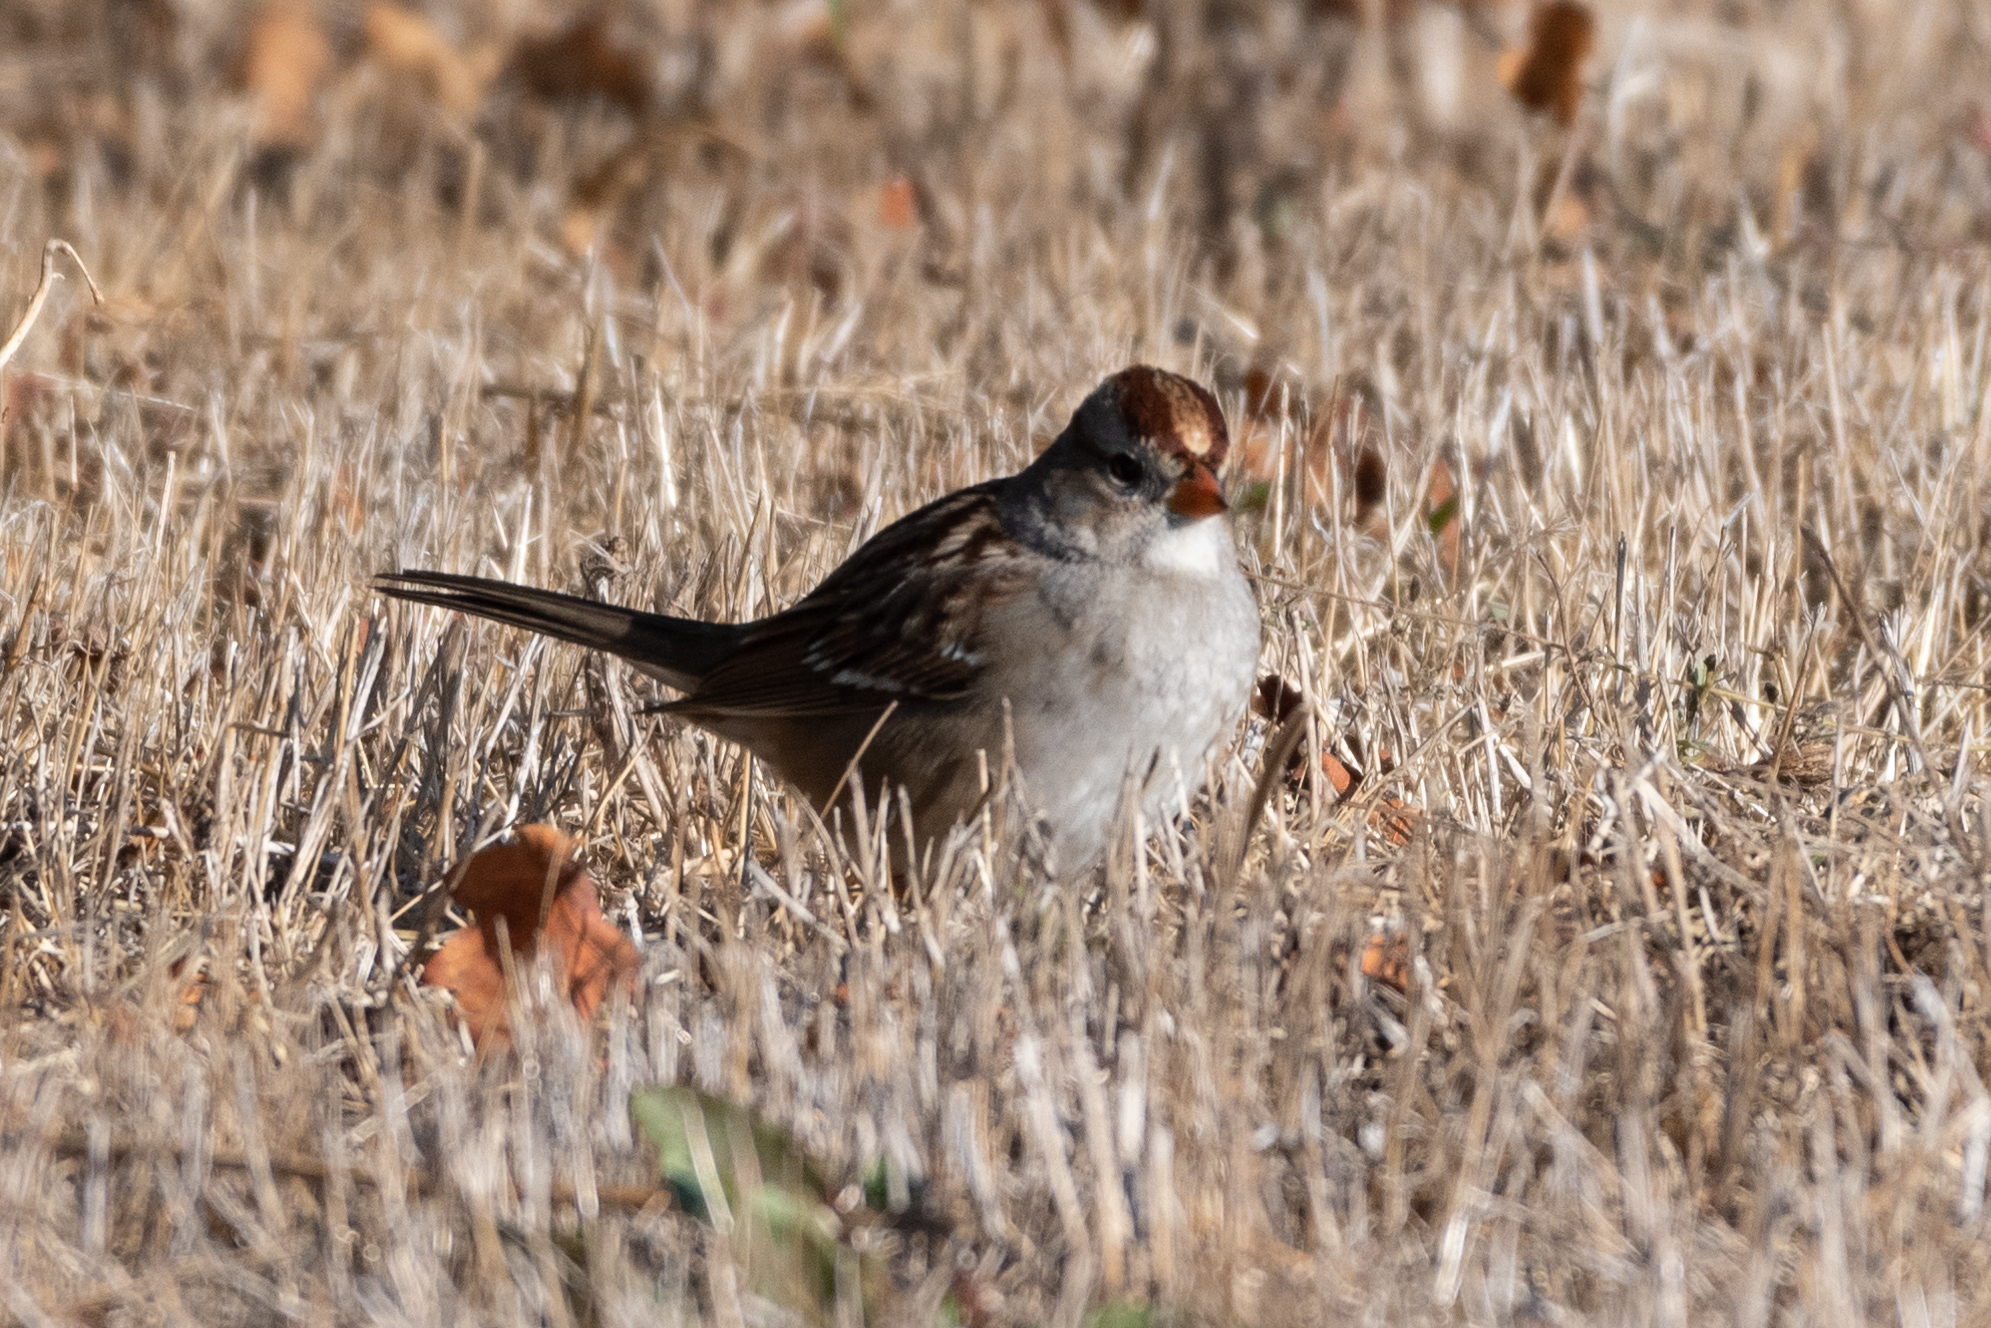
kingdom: Animalia
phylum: Chordata
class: Aves
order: Passeriformes
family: Passerellidae
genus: Zonotrichia
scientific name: Zonotrichia leucophrys
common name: White-crowned sparrow
